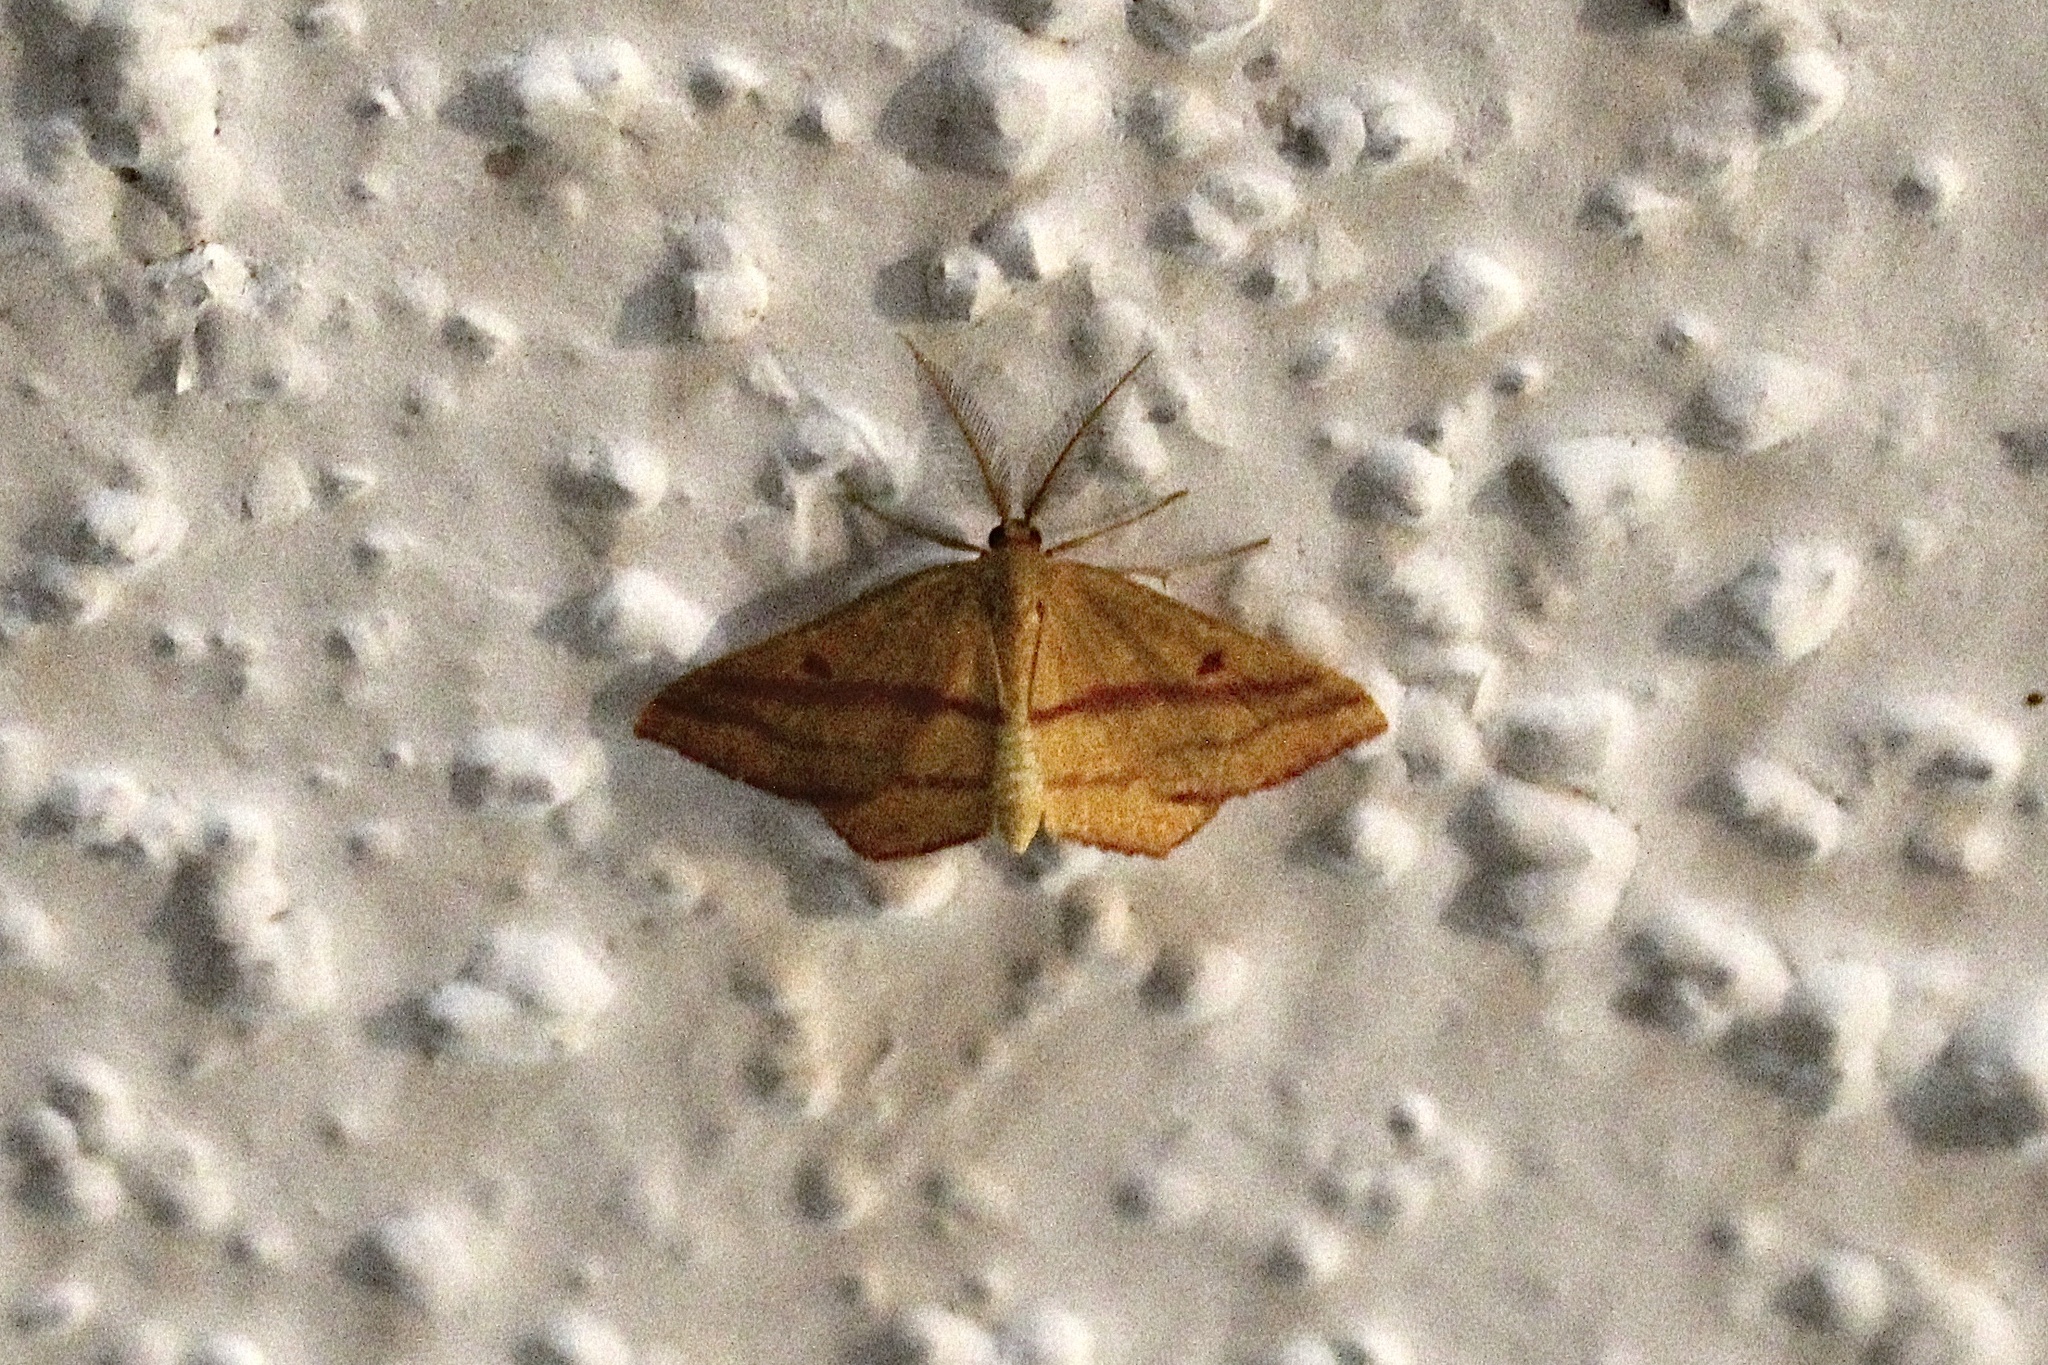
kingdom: Animalia
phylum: Arthropoda
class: Insecta
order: Lepidoptera
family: Geometridae
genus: Haematopis
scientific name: Haematopis grataria
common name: Chickweed geometer
